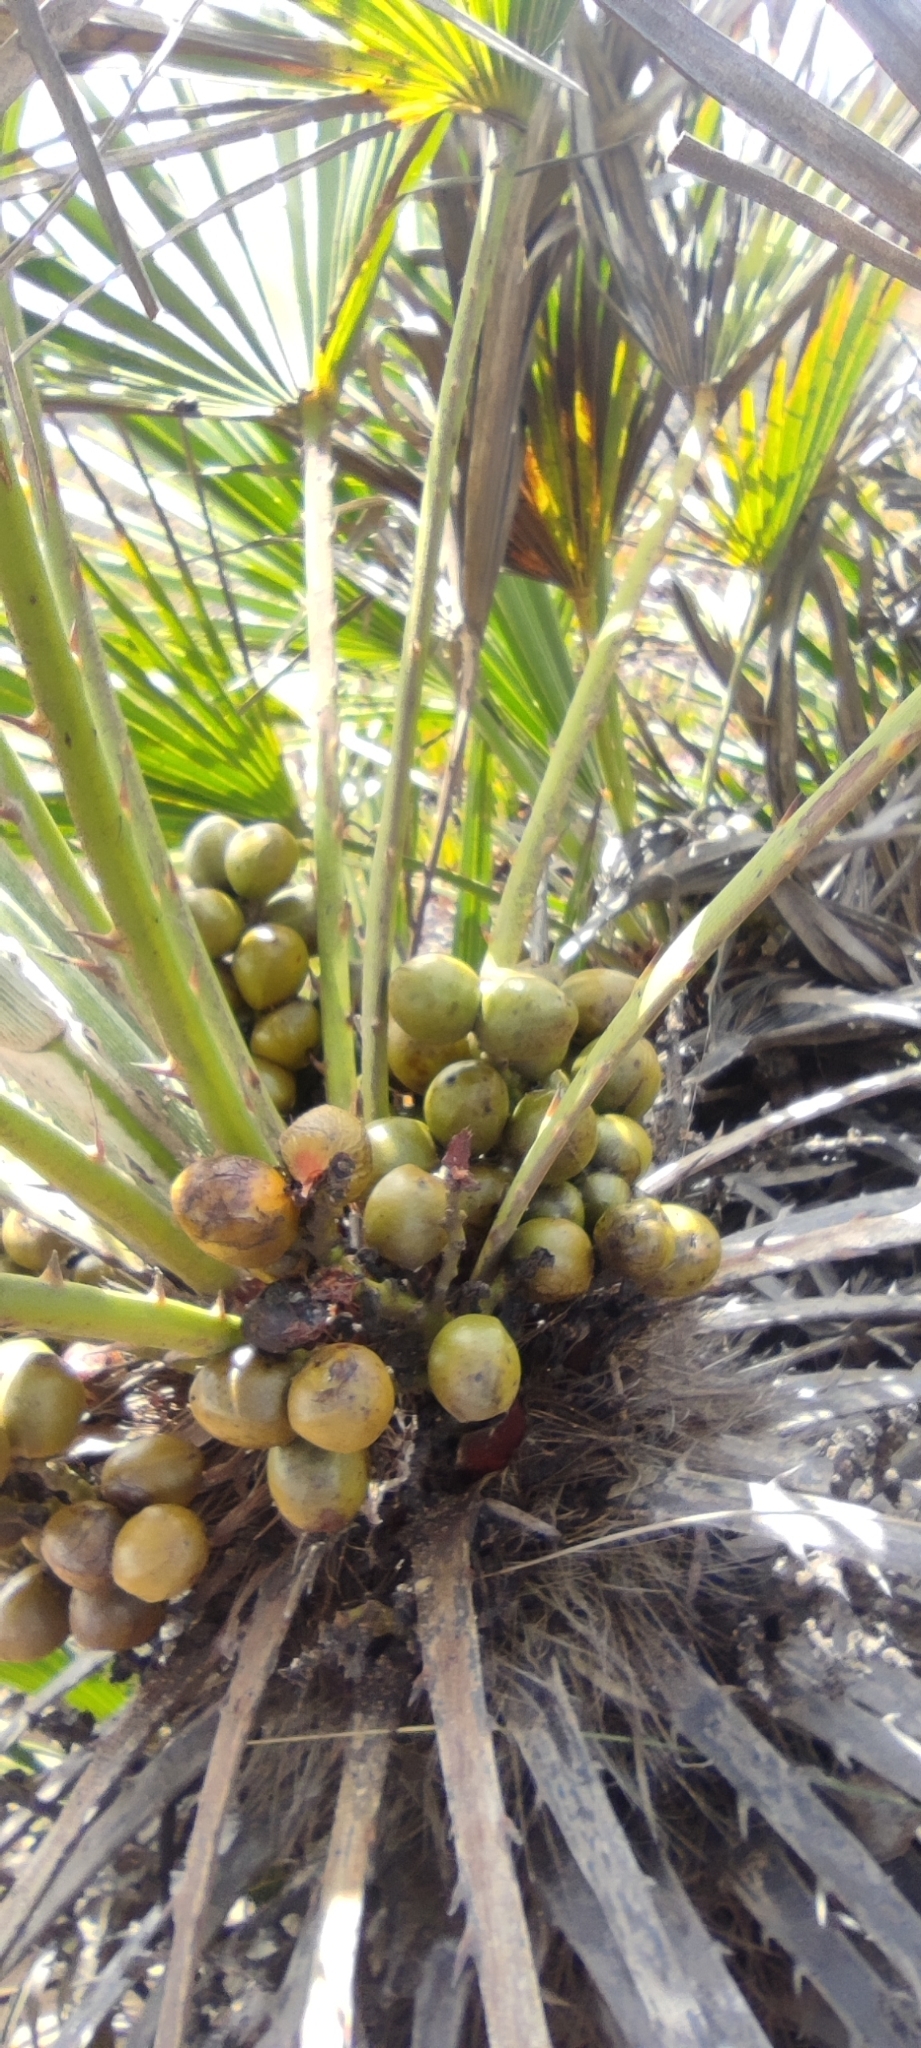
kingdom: Plantae
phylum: Tracheophyta
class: Liliopsida
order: Arecales
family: Arecaceae
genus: Chamaerops
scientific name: Chamaerops humilis
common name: Dwarf fan palm
